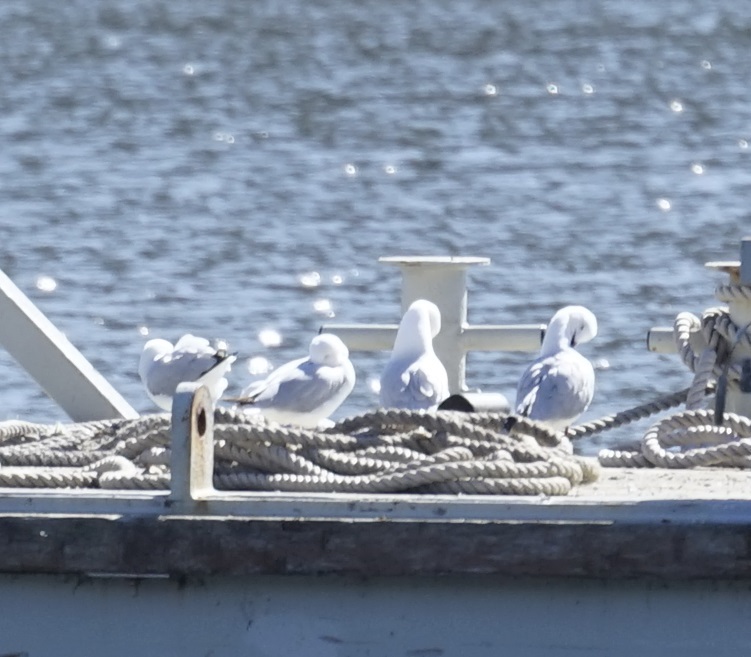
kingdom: Animalia
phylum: Chordata
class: Aves
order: Charadriiformes
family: Laridae
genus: Chroicocephalus
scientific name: Chroicocephalus novaehollandiae
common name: Silver gull
